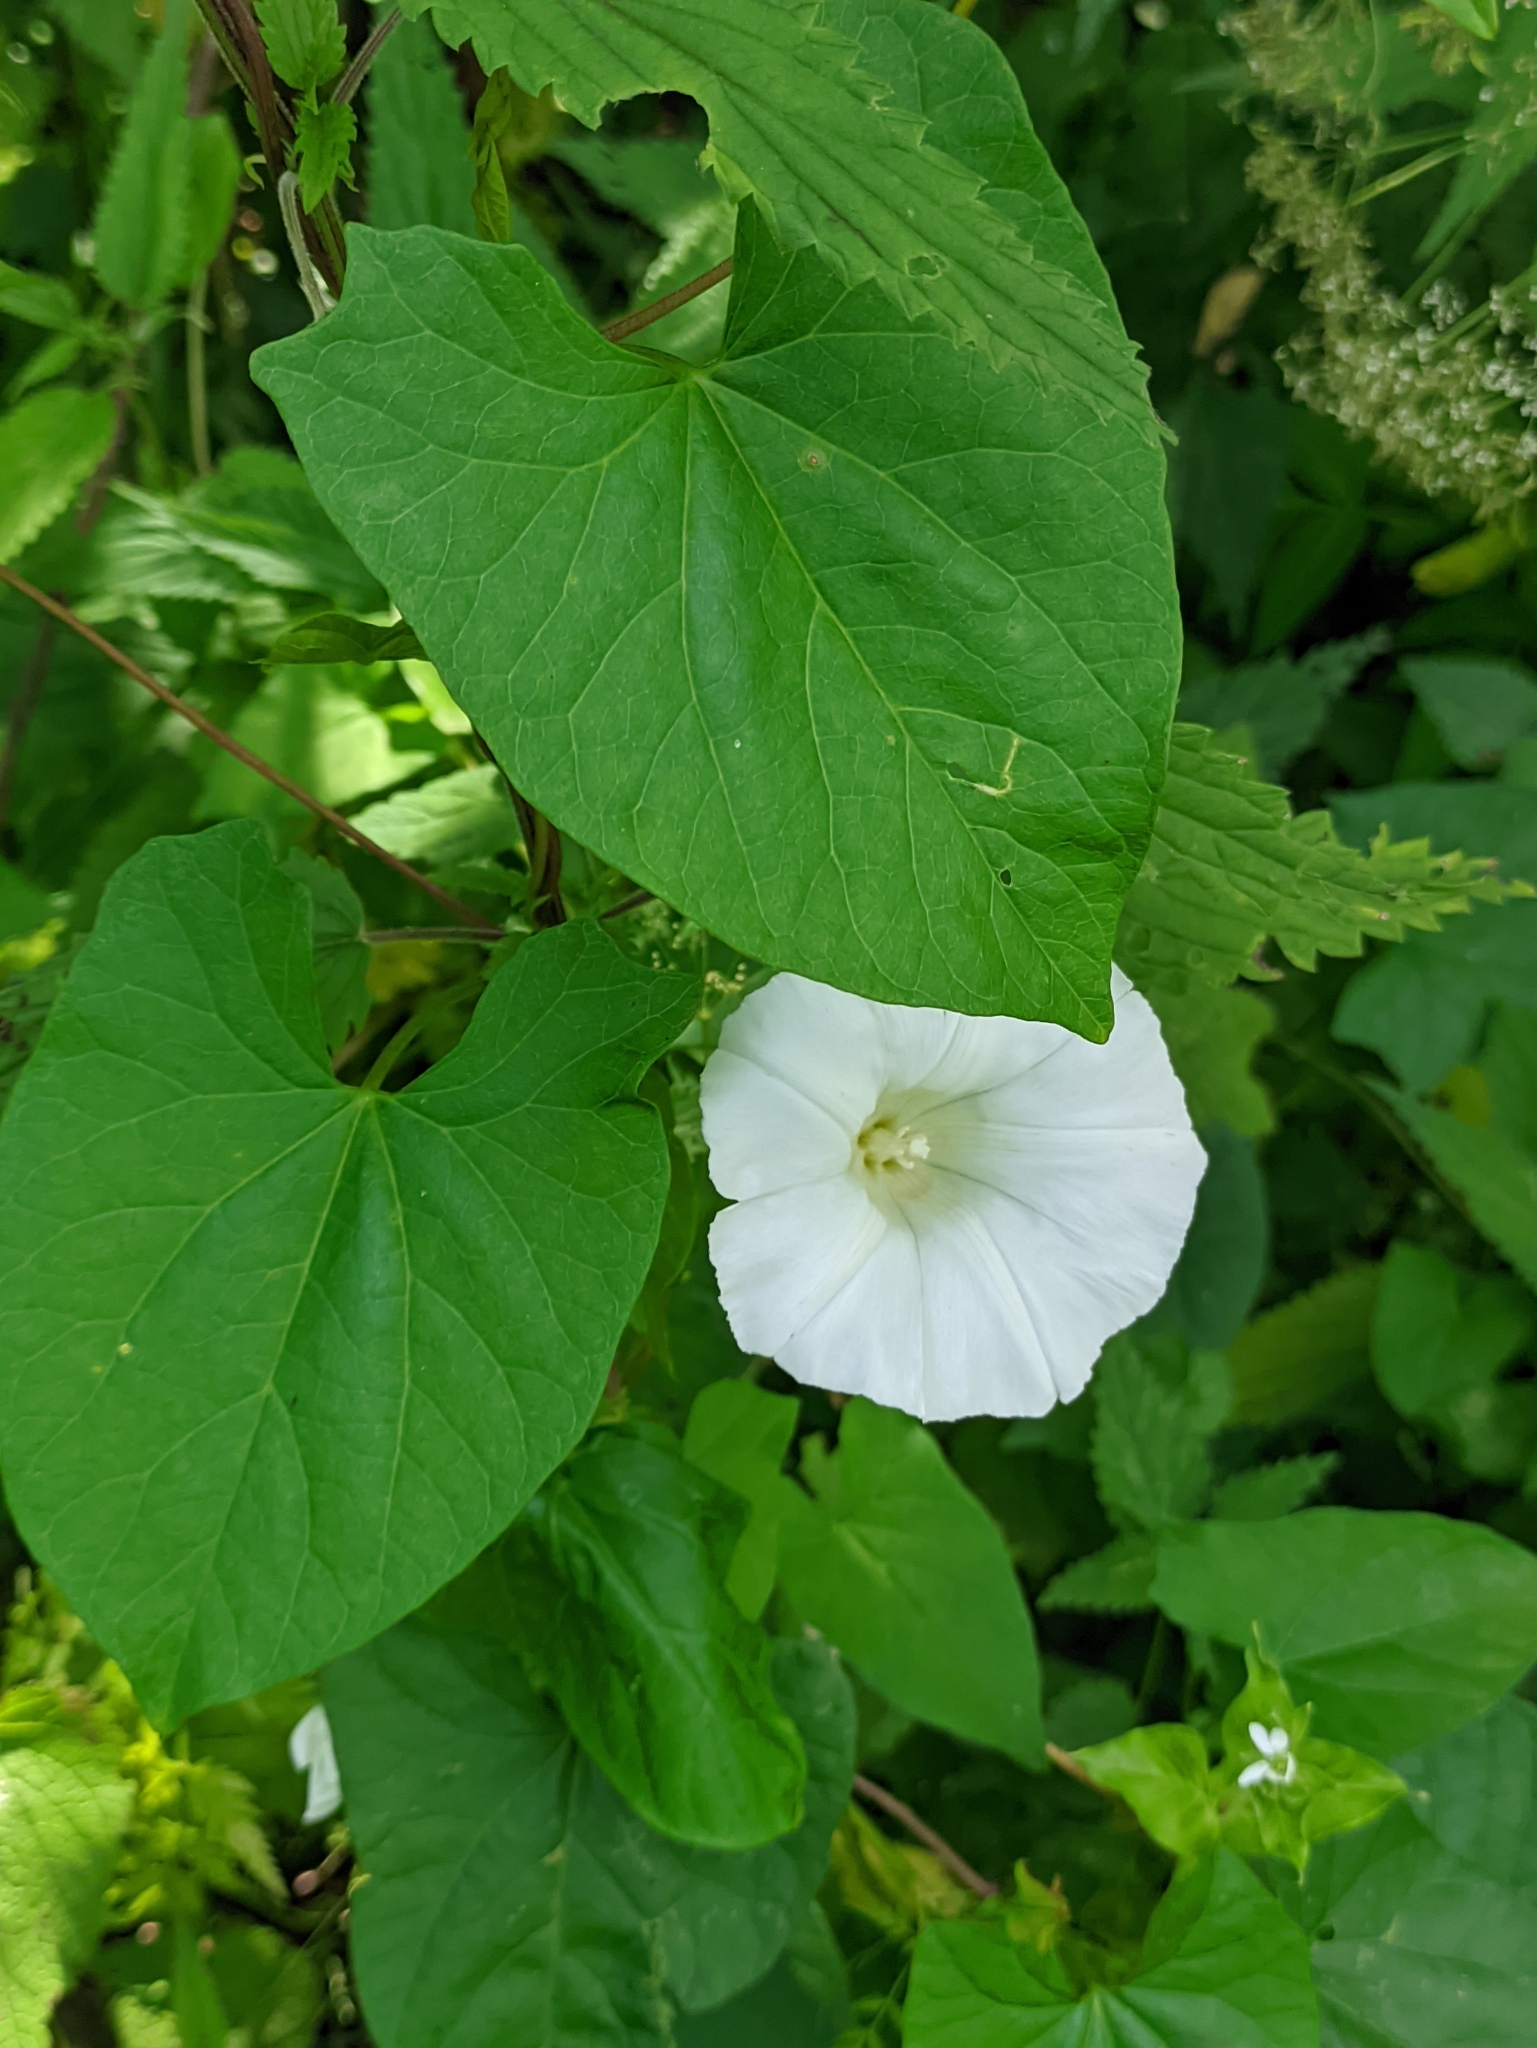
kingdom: Plantae
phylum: Tracheophyta
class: Magnoliopsida
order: Solanales
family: Convolvulaceae
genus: Calystegia
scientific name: Calystegia sepium
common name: Hedge bindweed
